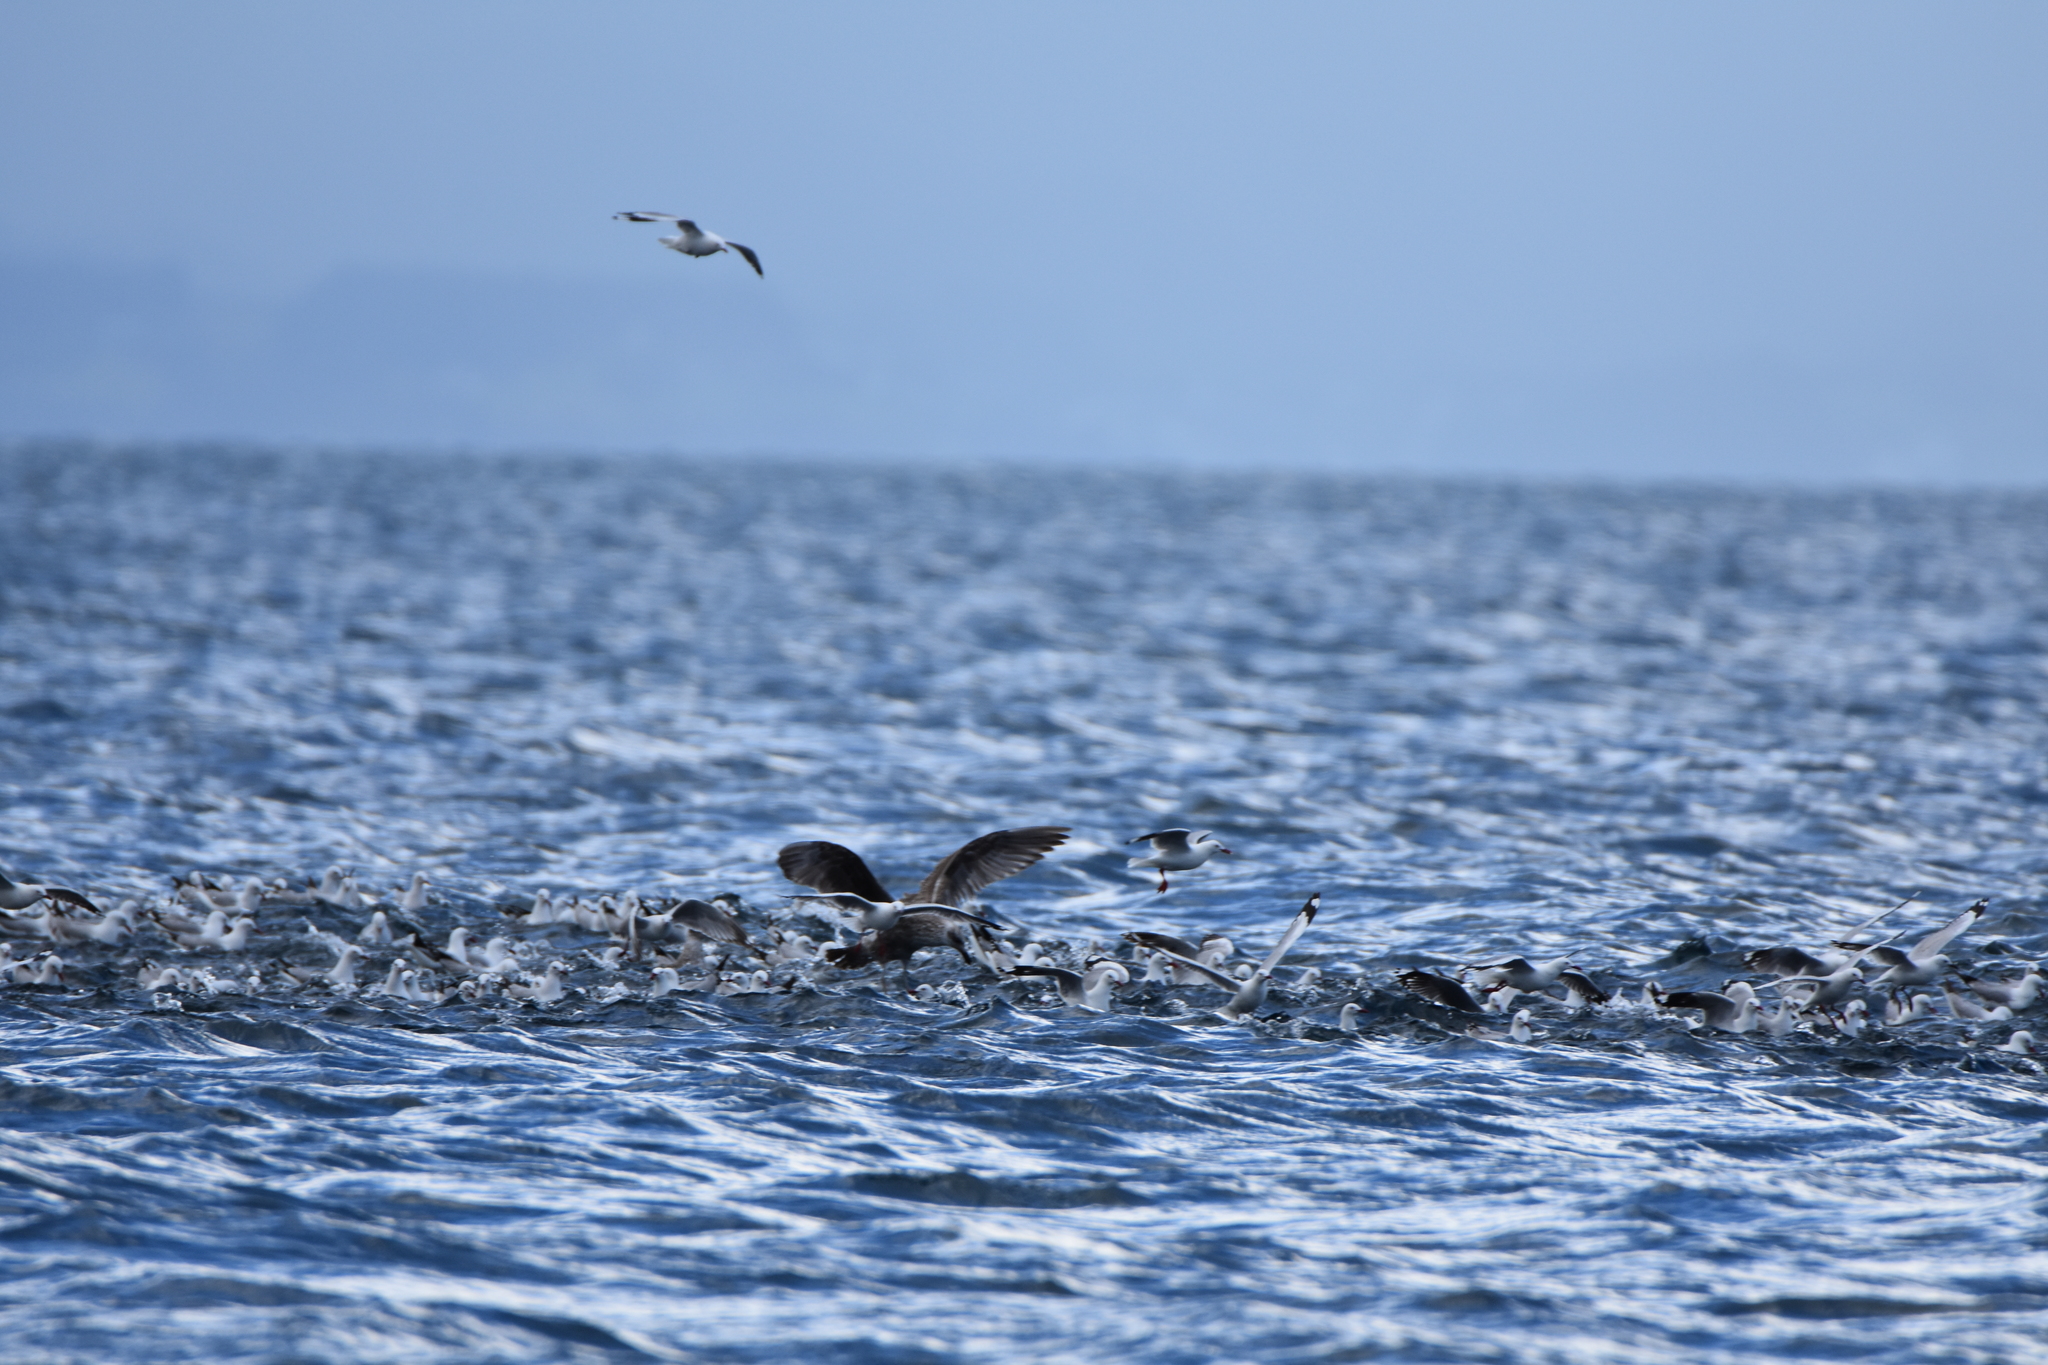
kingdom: Animalia
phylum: Chordata
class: Aves
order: Charadriiformes
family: Laridae
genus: Chroicocephalus
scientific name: Chroicocephalus novaehollandiae
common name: Silver gull
